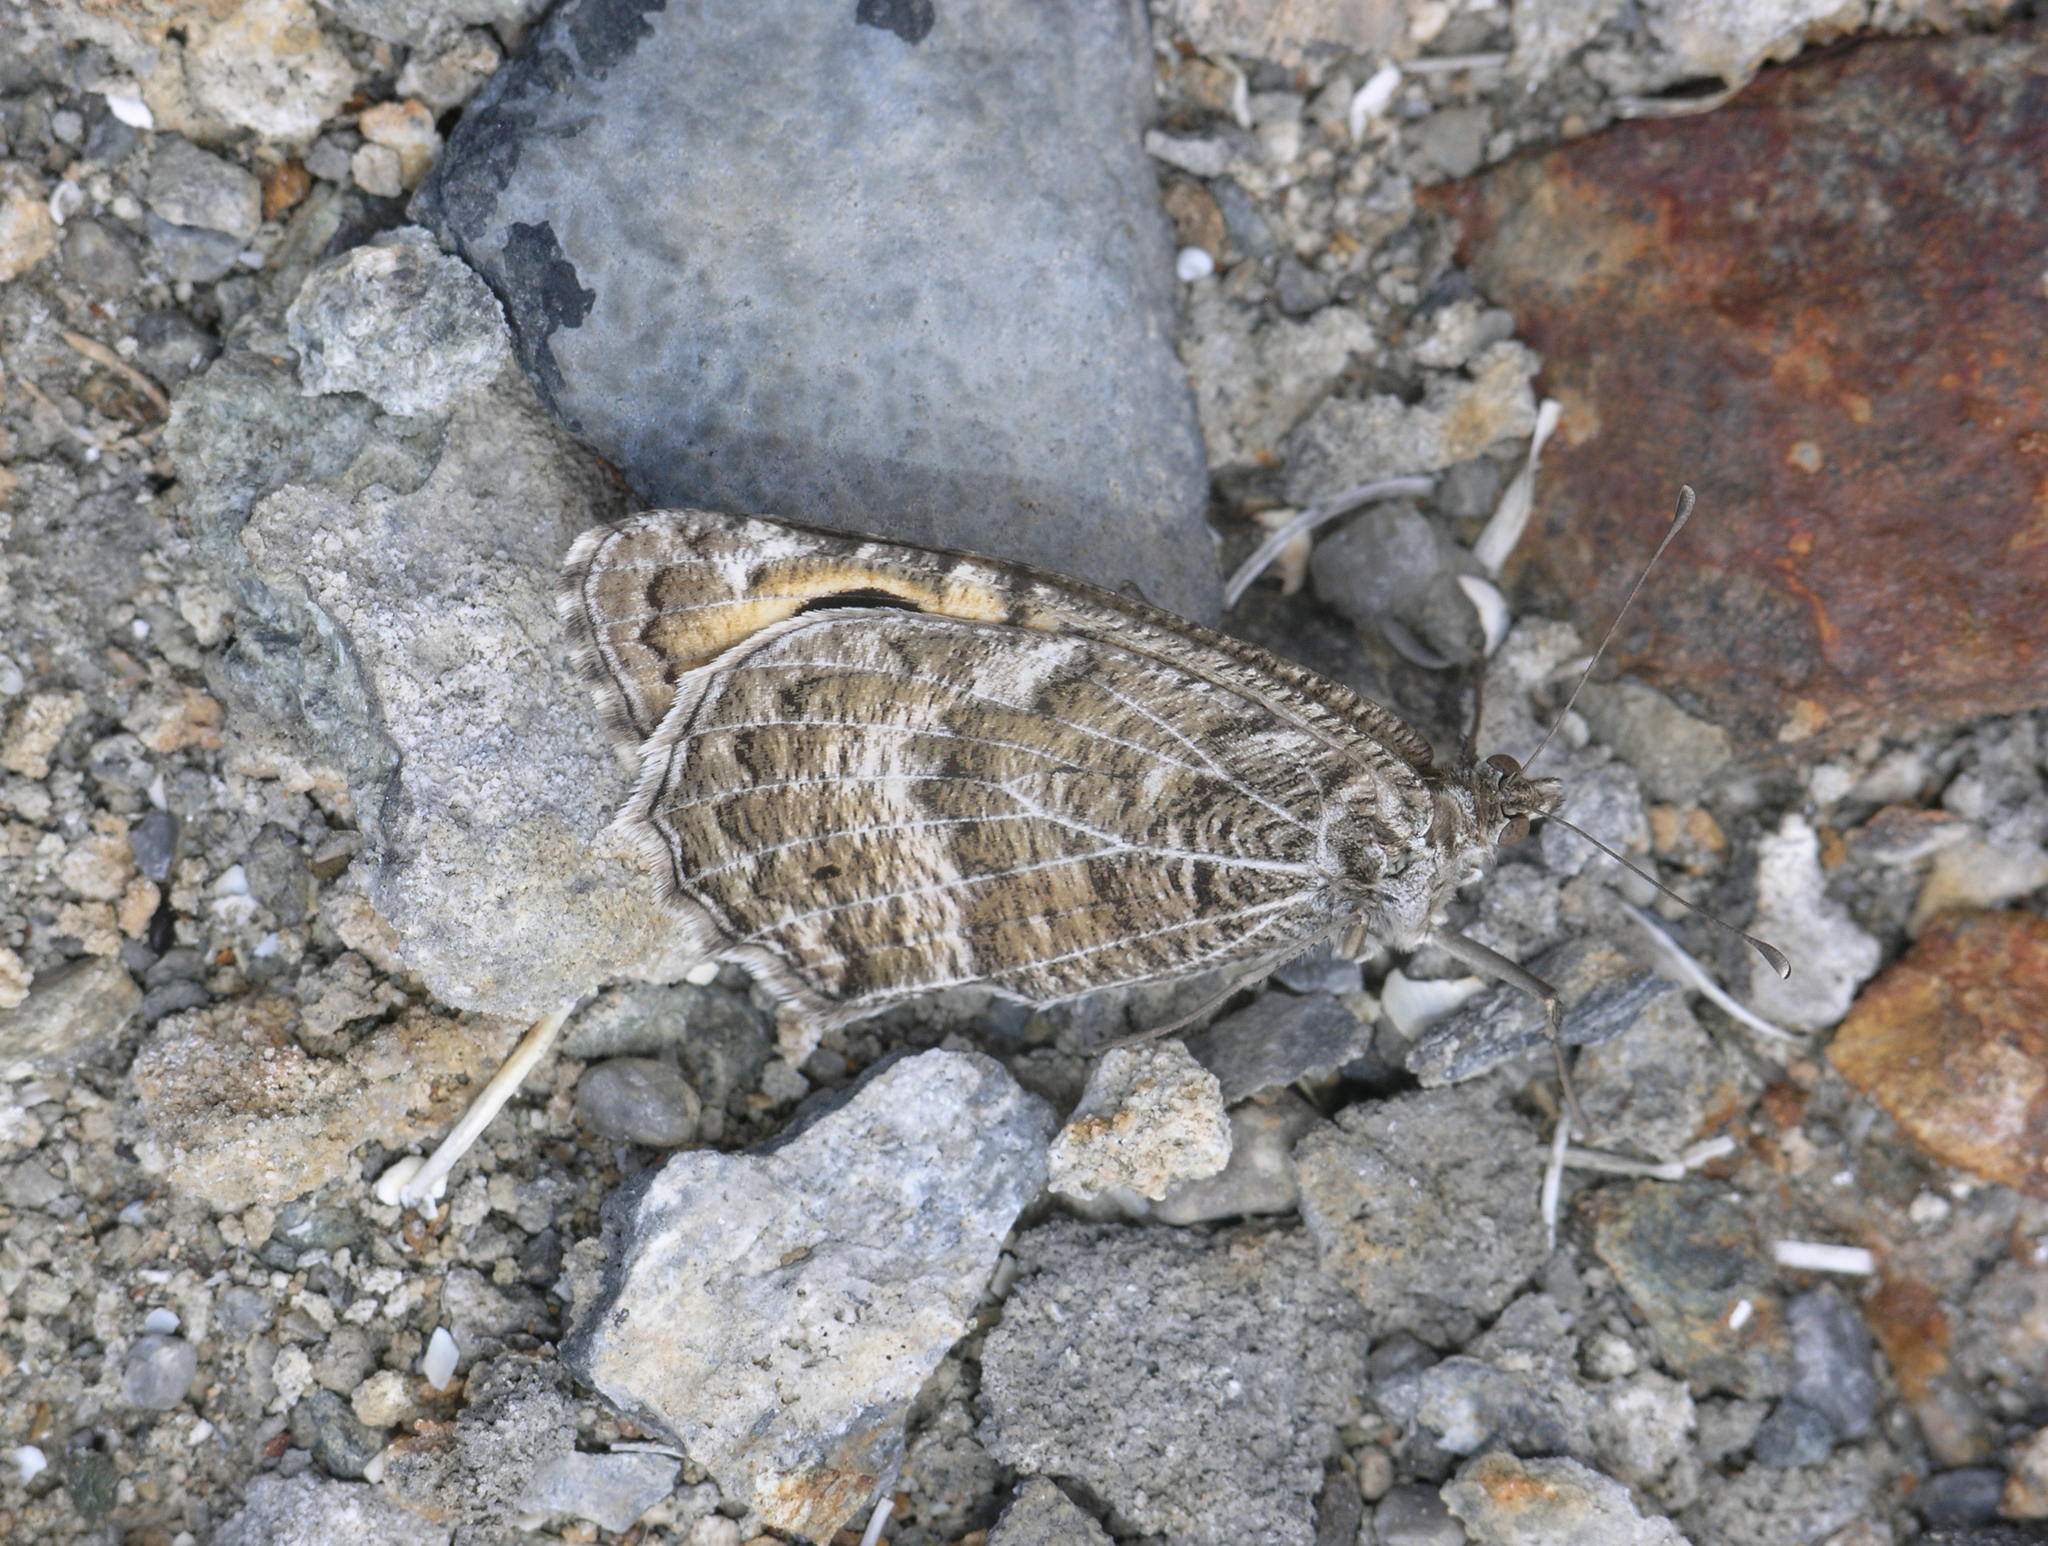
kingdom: Animalia
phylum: Arthropoda
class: Insecta
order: Lepidoptera
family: Nymphalidae
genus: Pseudochazara
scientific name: Pseudochazara hippolyte
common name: Nevada grayling
